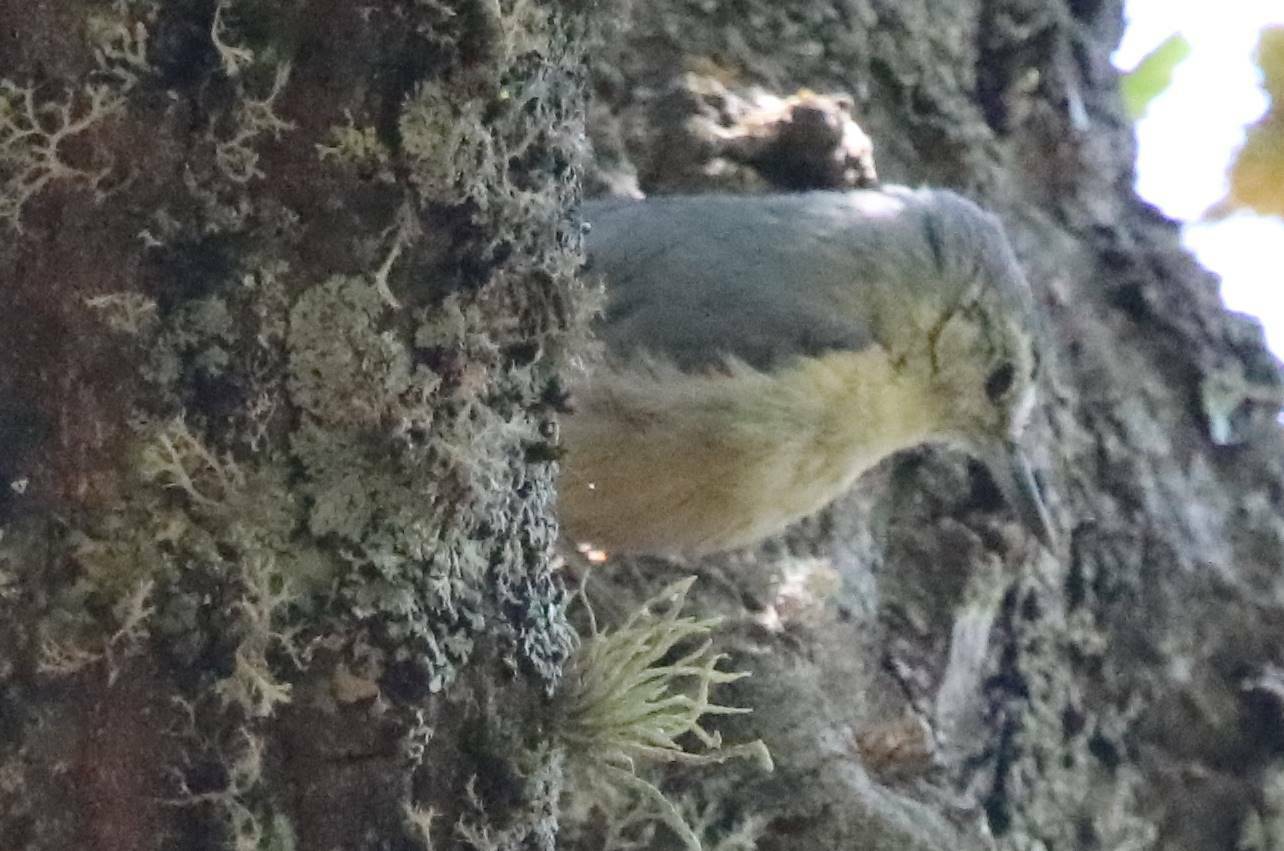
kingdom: Animalia
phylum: Chordata
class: Aves
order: Passeriformes
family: Sittidae
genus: Sitta
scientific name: Sitta ledanti
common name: Algerian nuthatch
